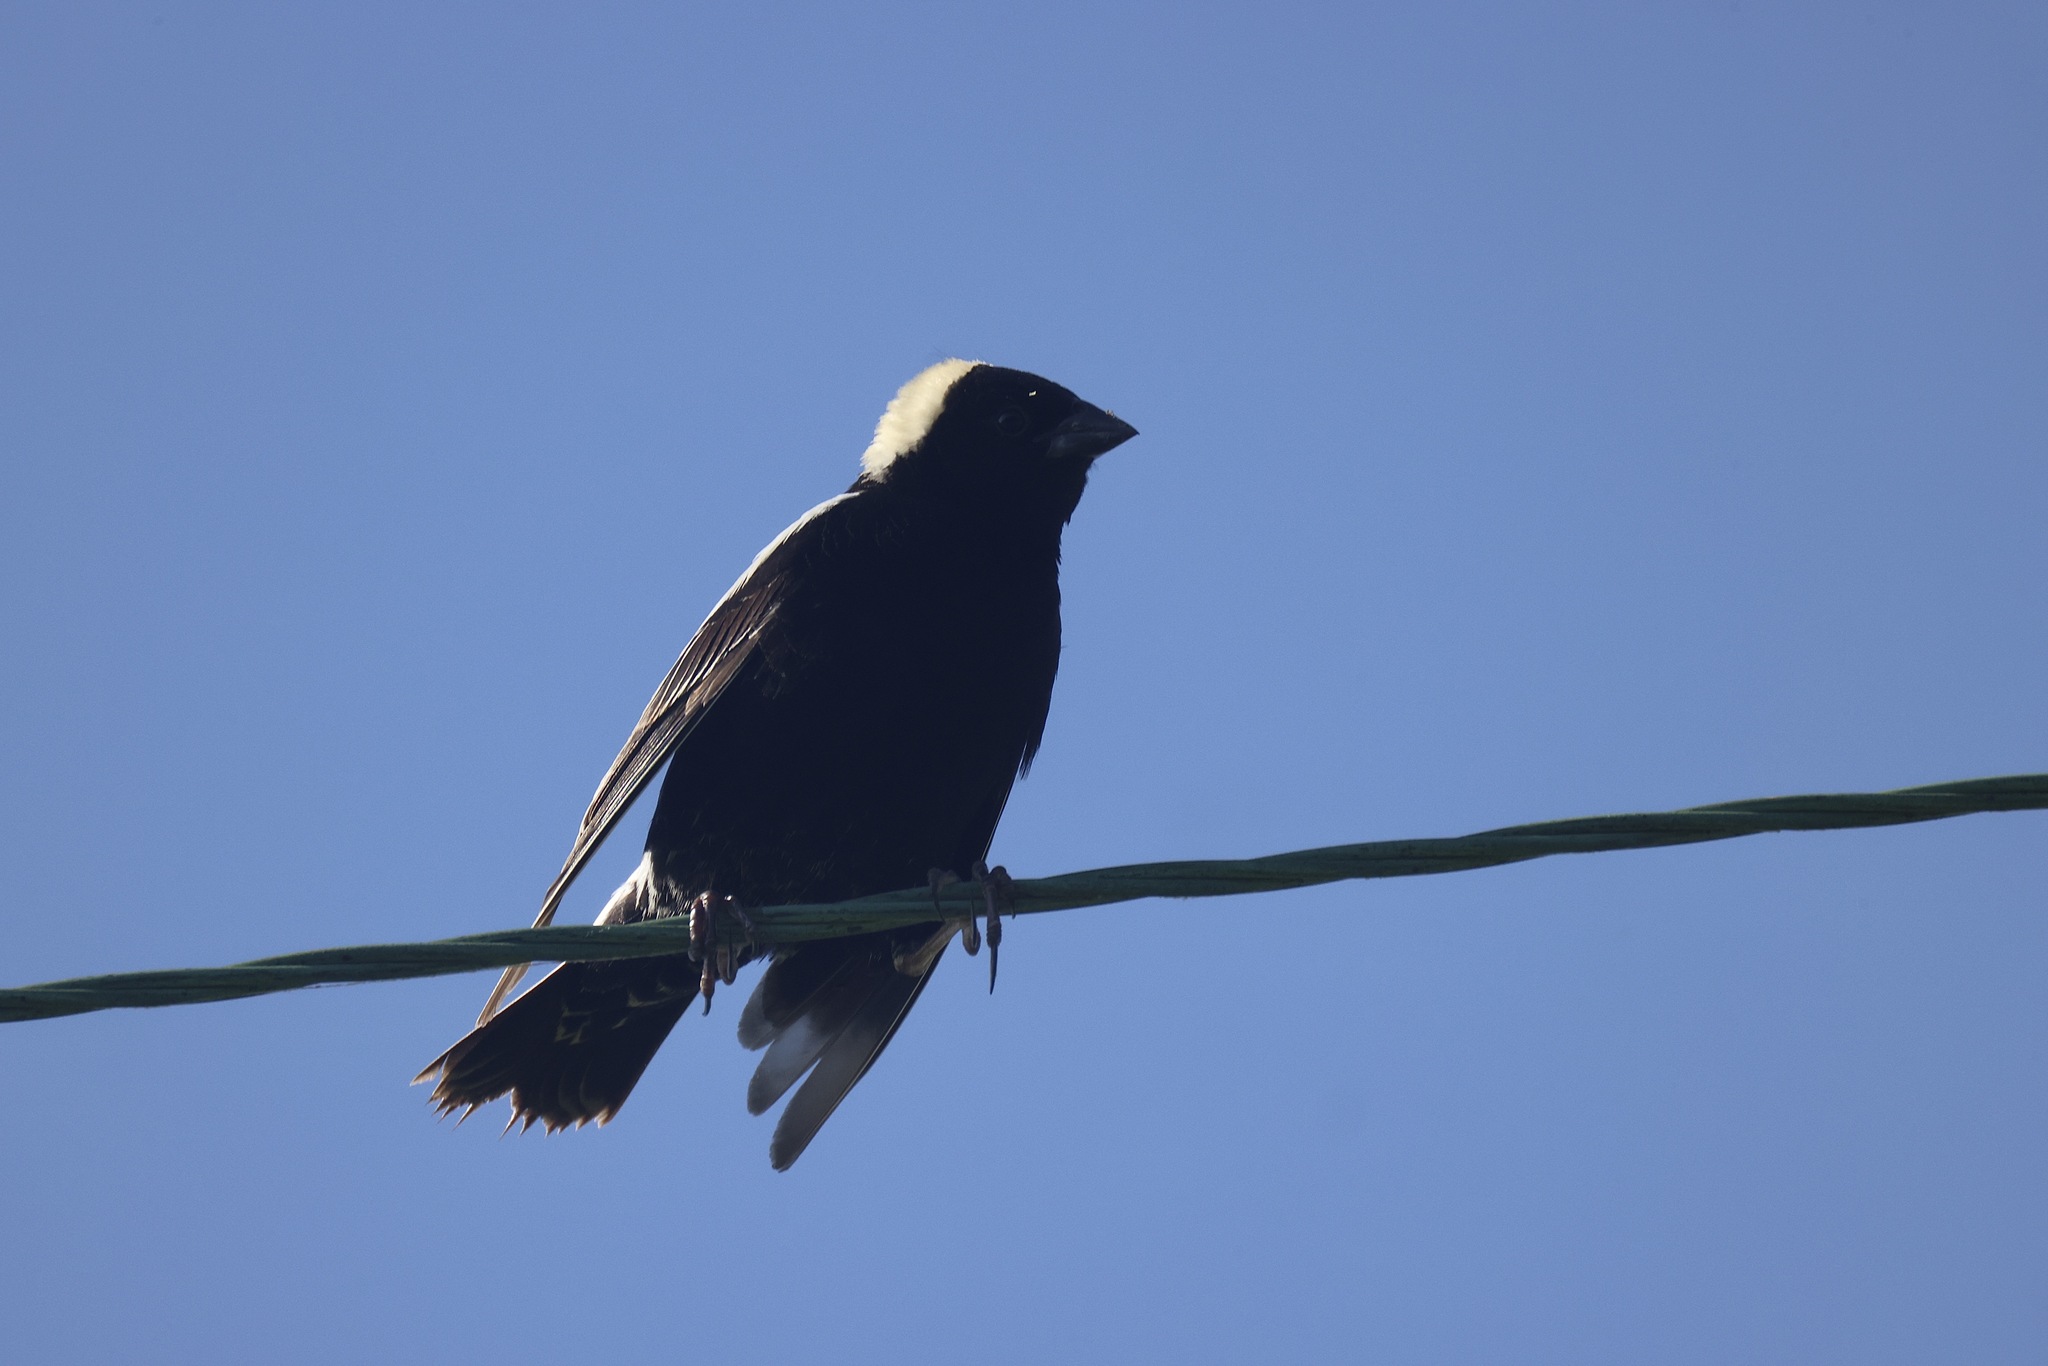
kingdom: Animalia
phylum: Chordata
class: Aves
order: Passeriformes
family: Icteridae
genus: Dolichonyx
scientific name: Dolichonyx oryzivorus
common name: Bobolink
